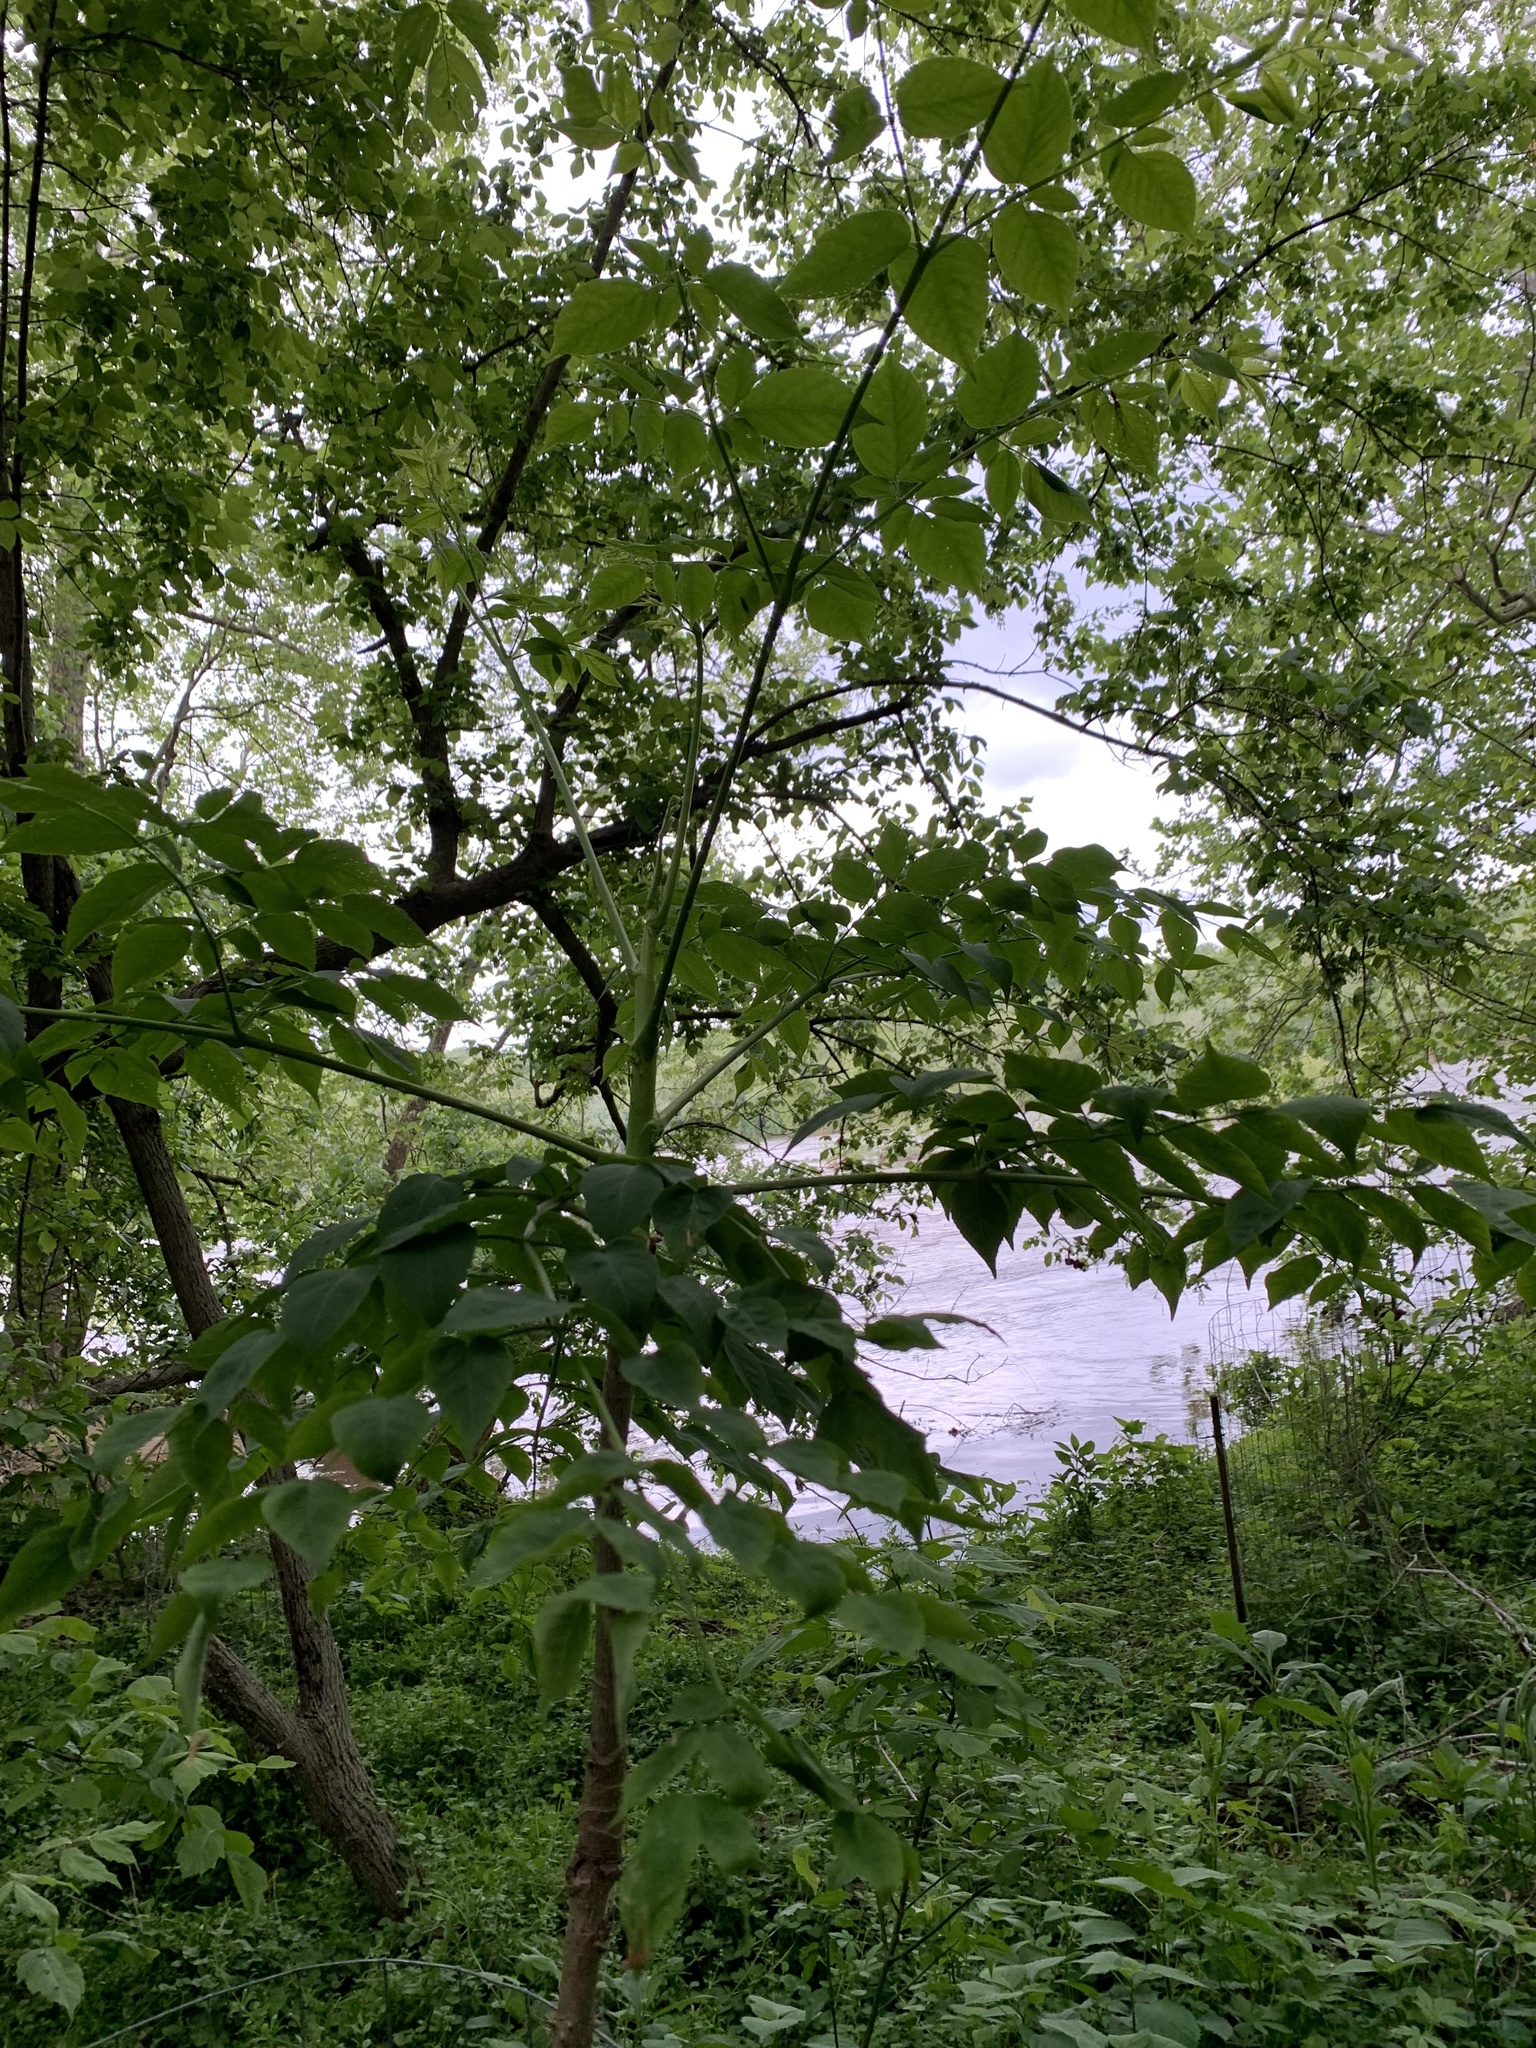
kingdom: Plantae
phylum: Tracheophyta
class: Magnoliopsida
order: Apiales
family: Araliaceae
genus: Aralia
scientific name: Aralia spinosa
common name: Hercules'-club
